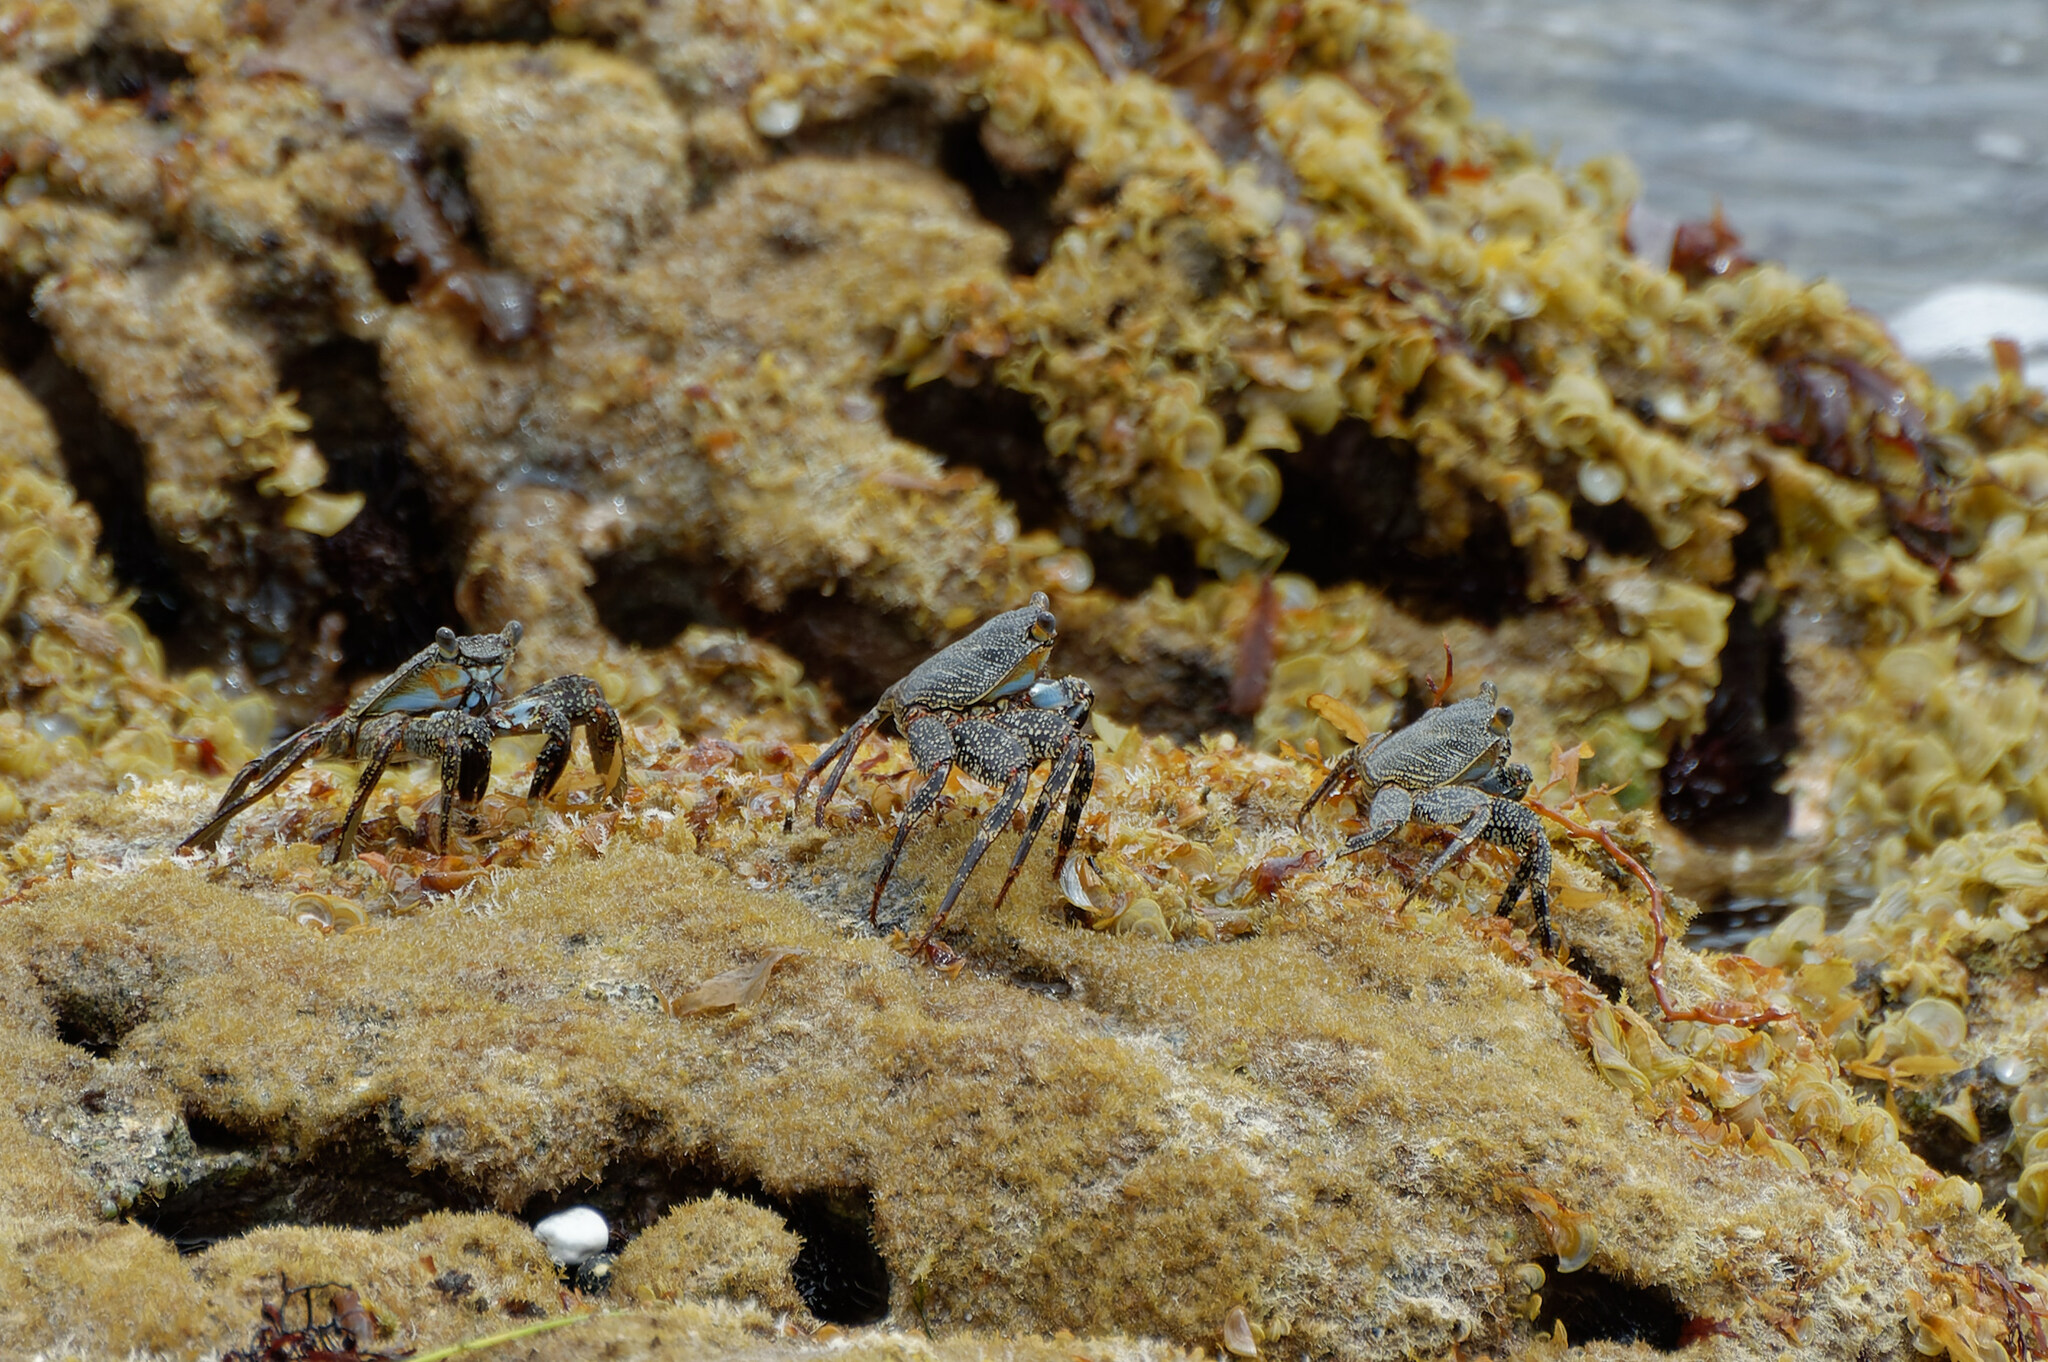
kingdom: Animalia
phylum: Arthropoda
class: Malacostraca
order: Decapoda
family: Grapsidae
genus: Grapsus
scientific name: Grapsus grapsus
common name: Sally lightfoot
